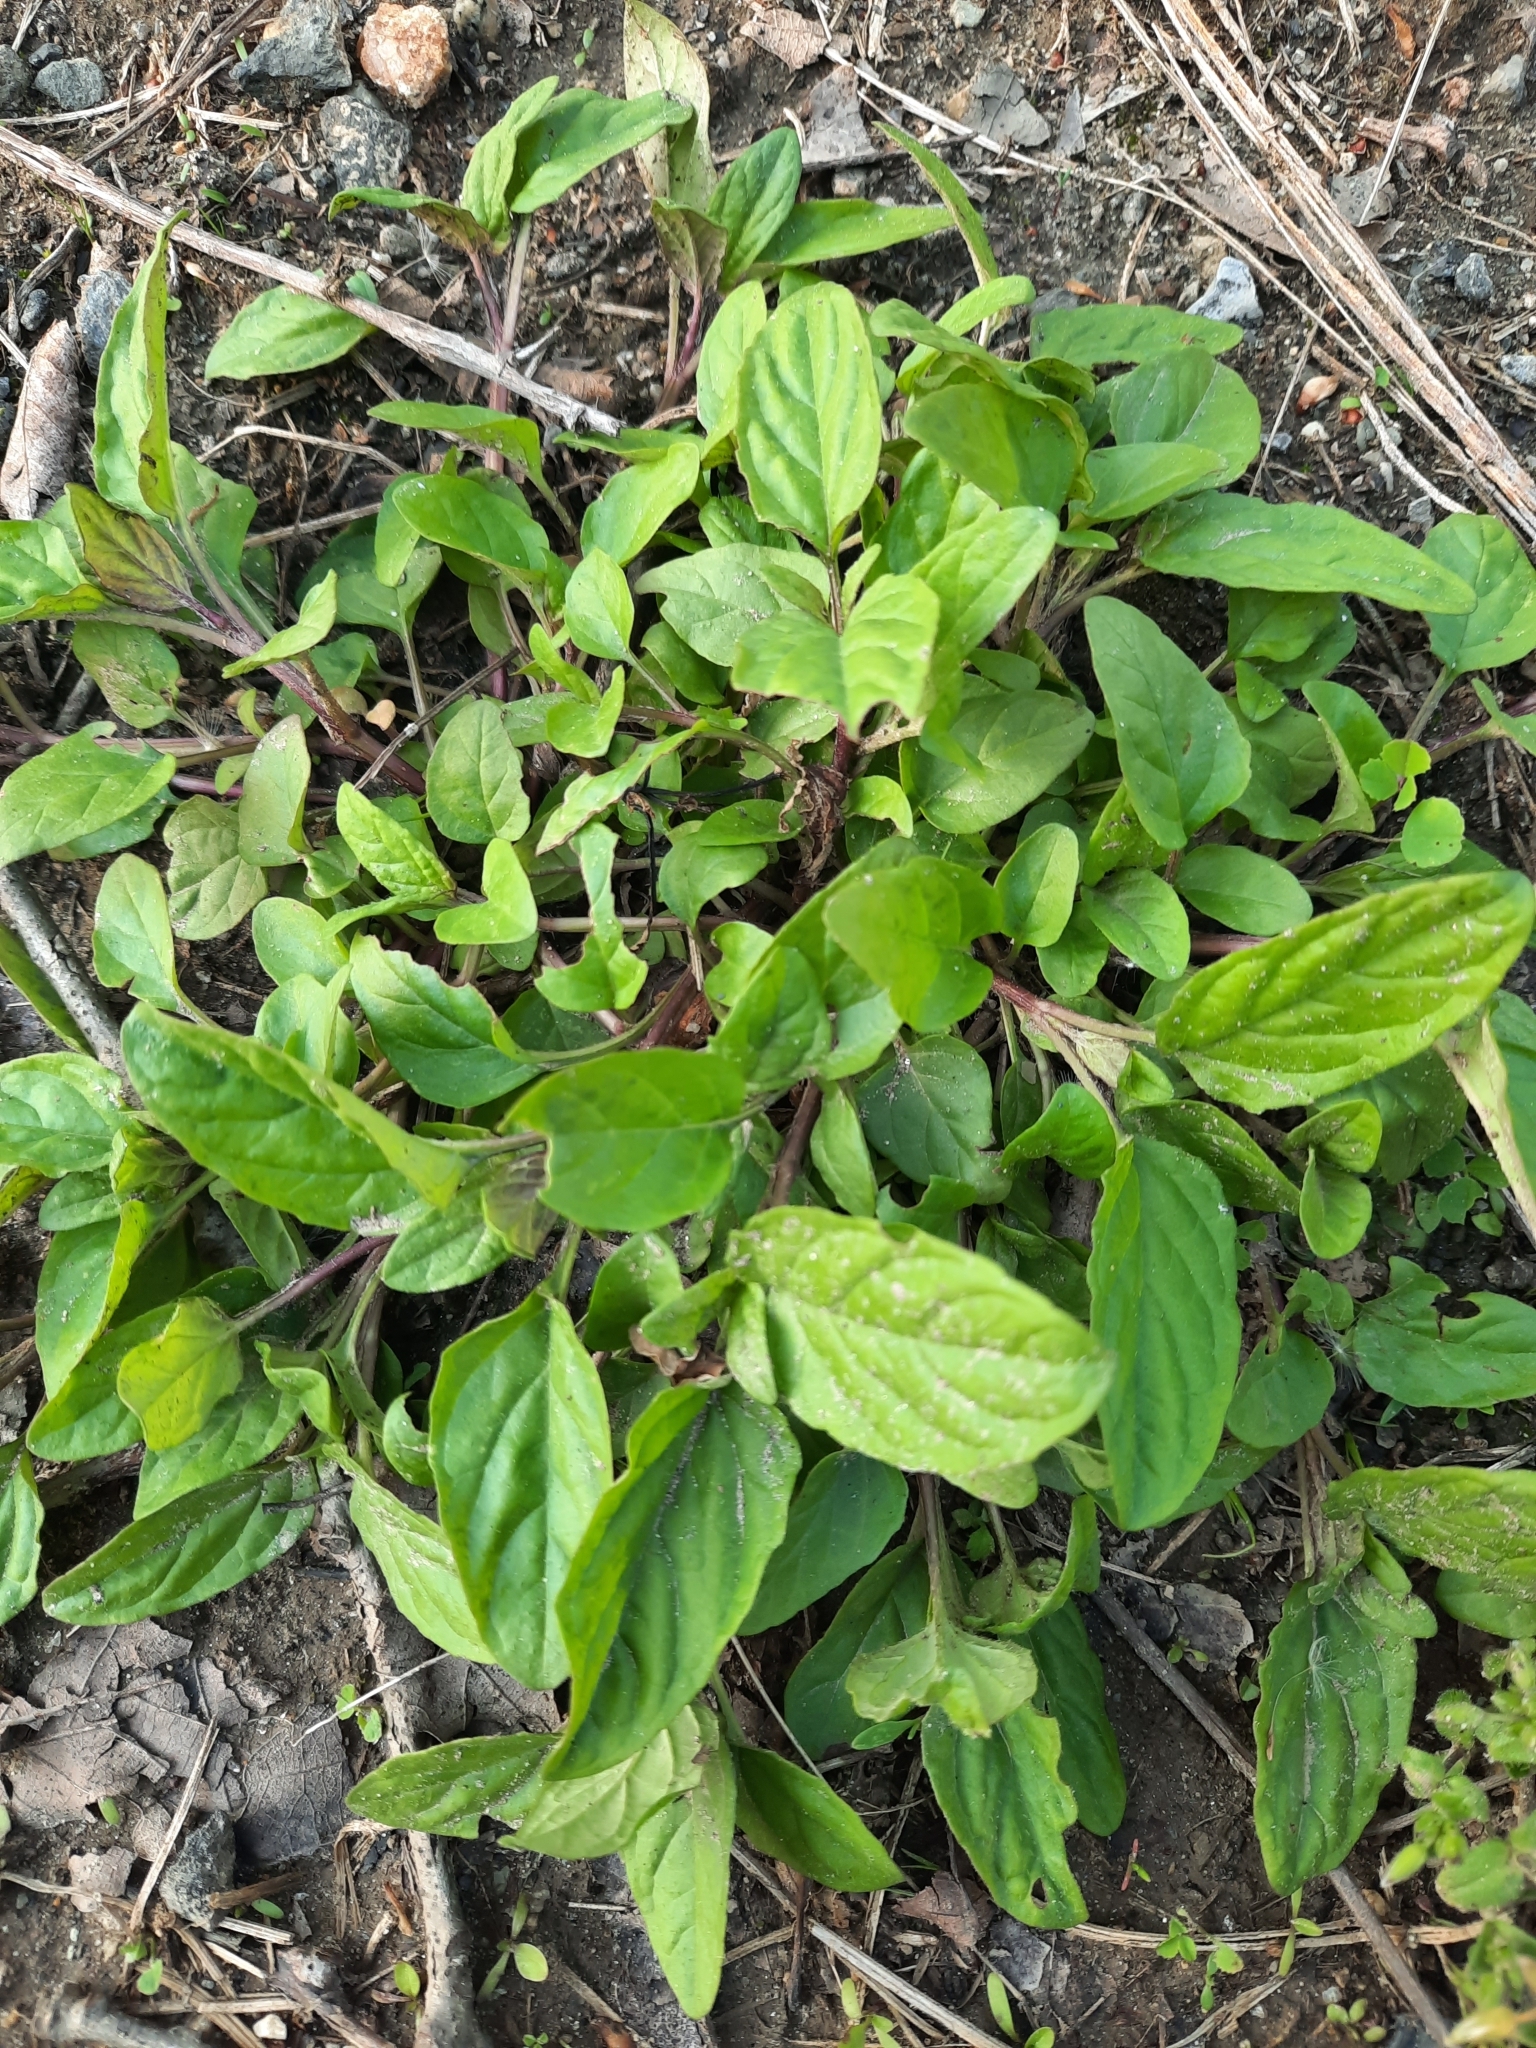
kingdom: Plantae
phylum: Tracheophyta
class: Magnoliopsida
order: Lamiales
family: Lamiaceae
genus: Prunella
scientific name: Prunella vulgaris
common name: Heal-all
